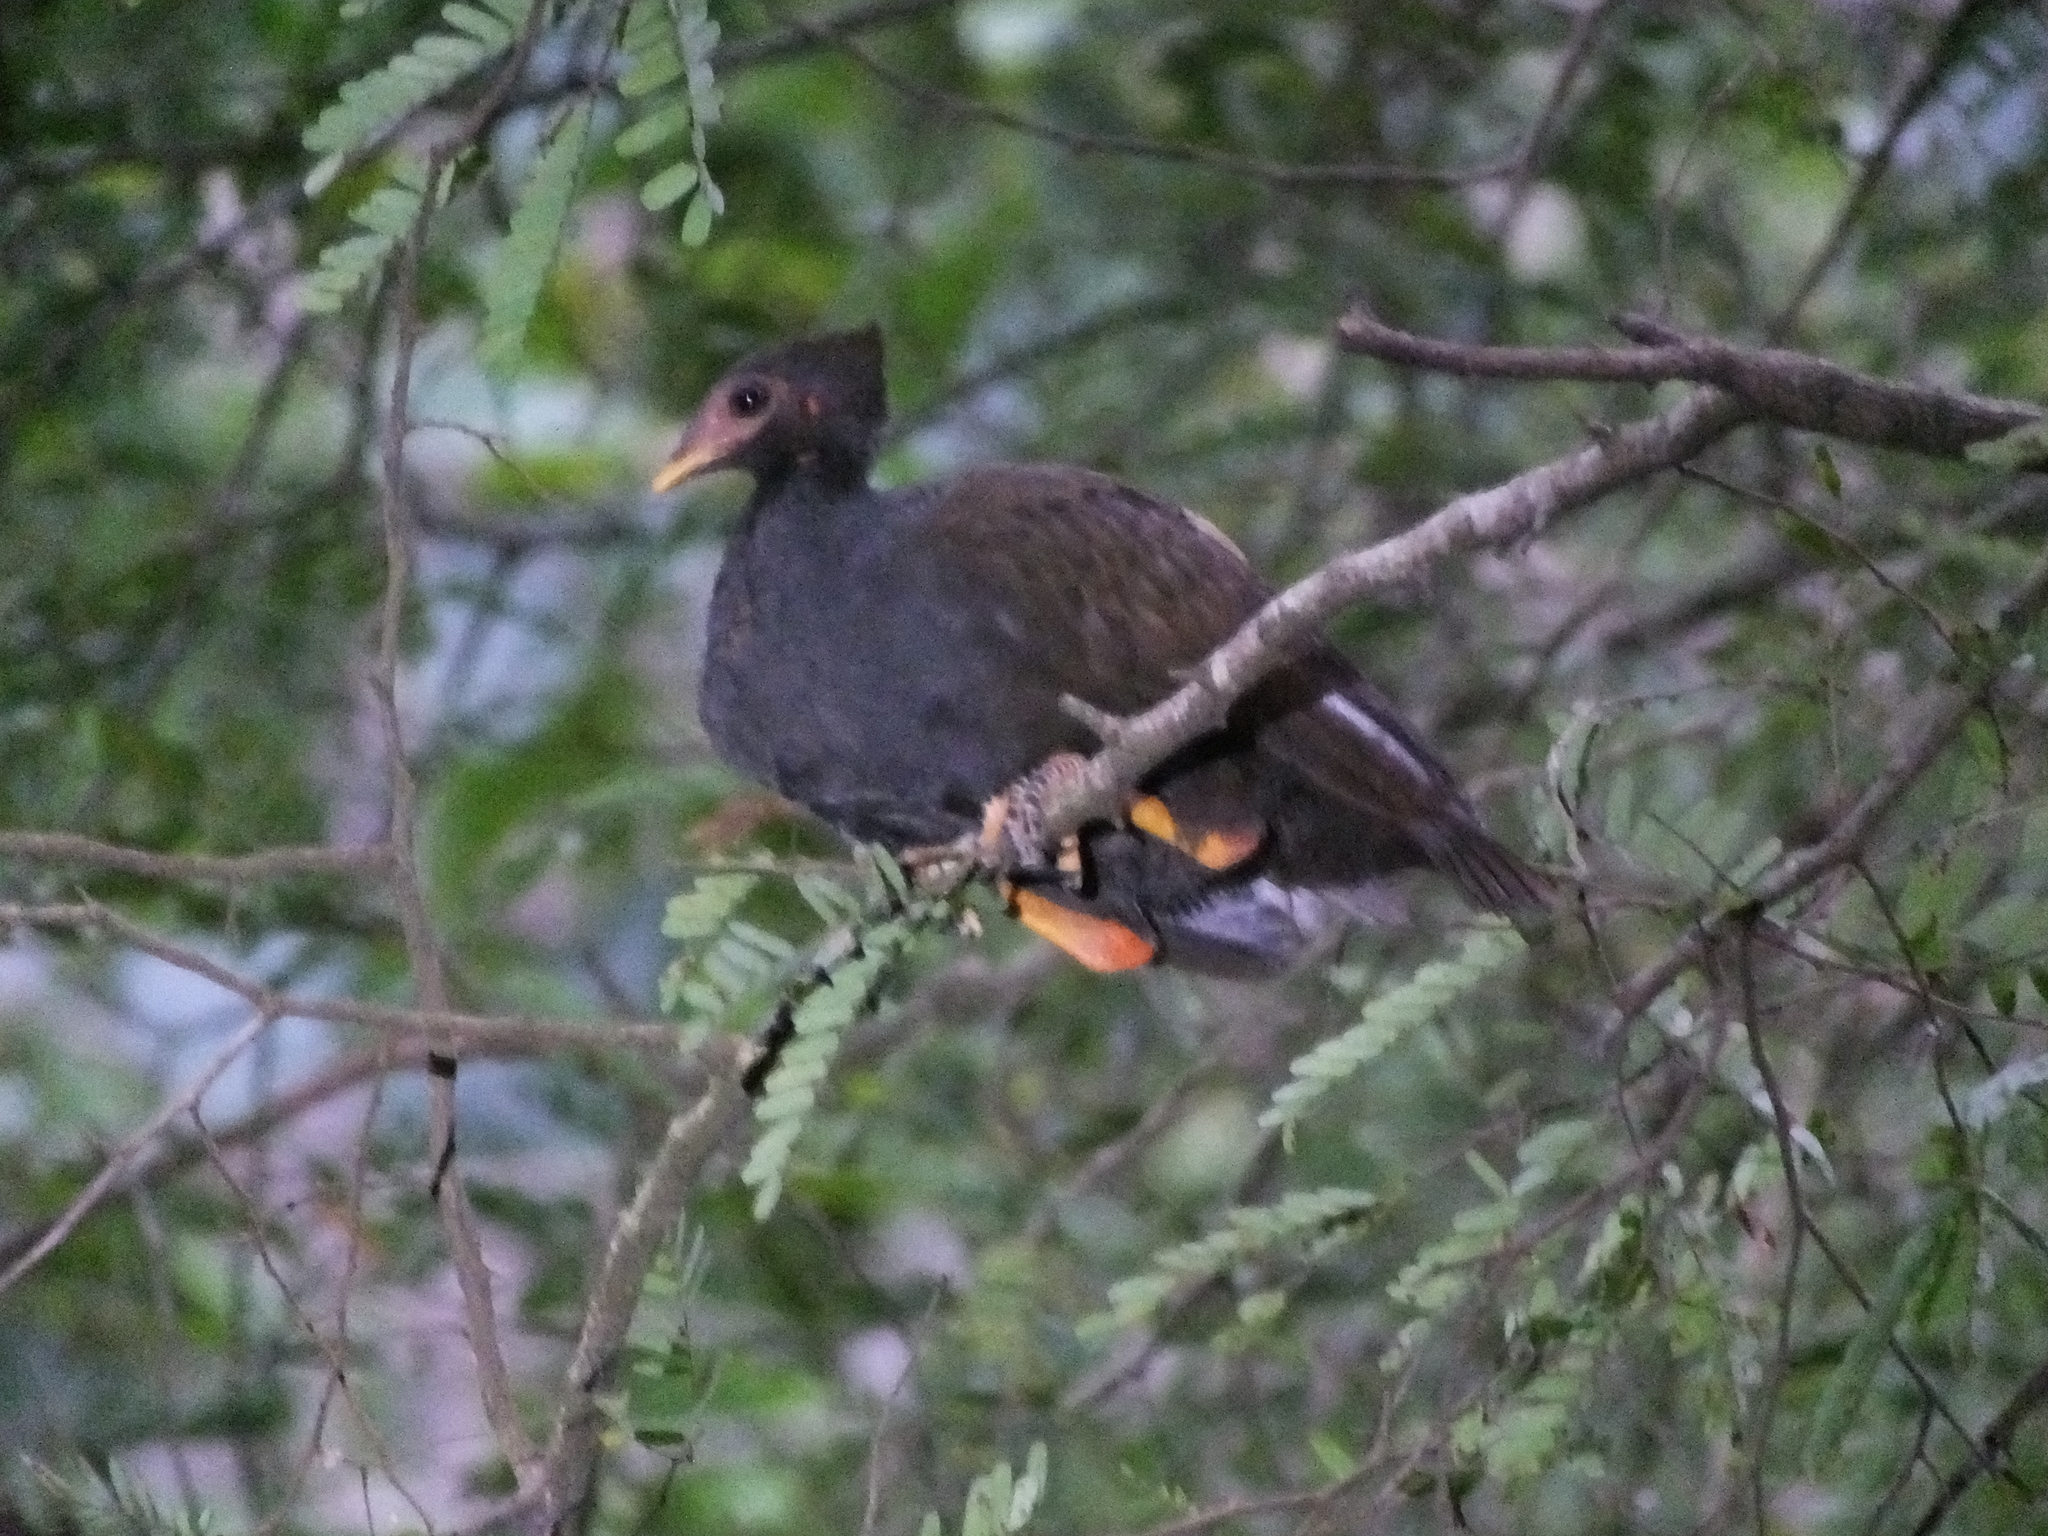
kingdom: Animalia
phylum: Chordata
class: Aves
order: Galliformes
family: Megapodiidae
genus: Megapodius
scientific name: Megapodius reinwardt
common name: Orange-footed scrubfowl
